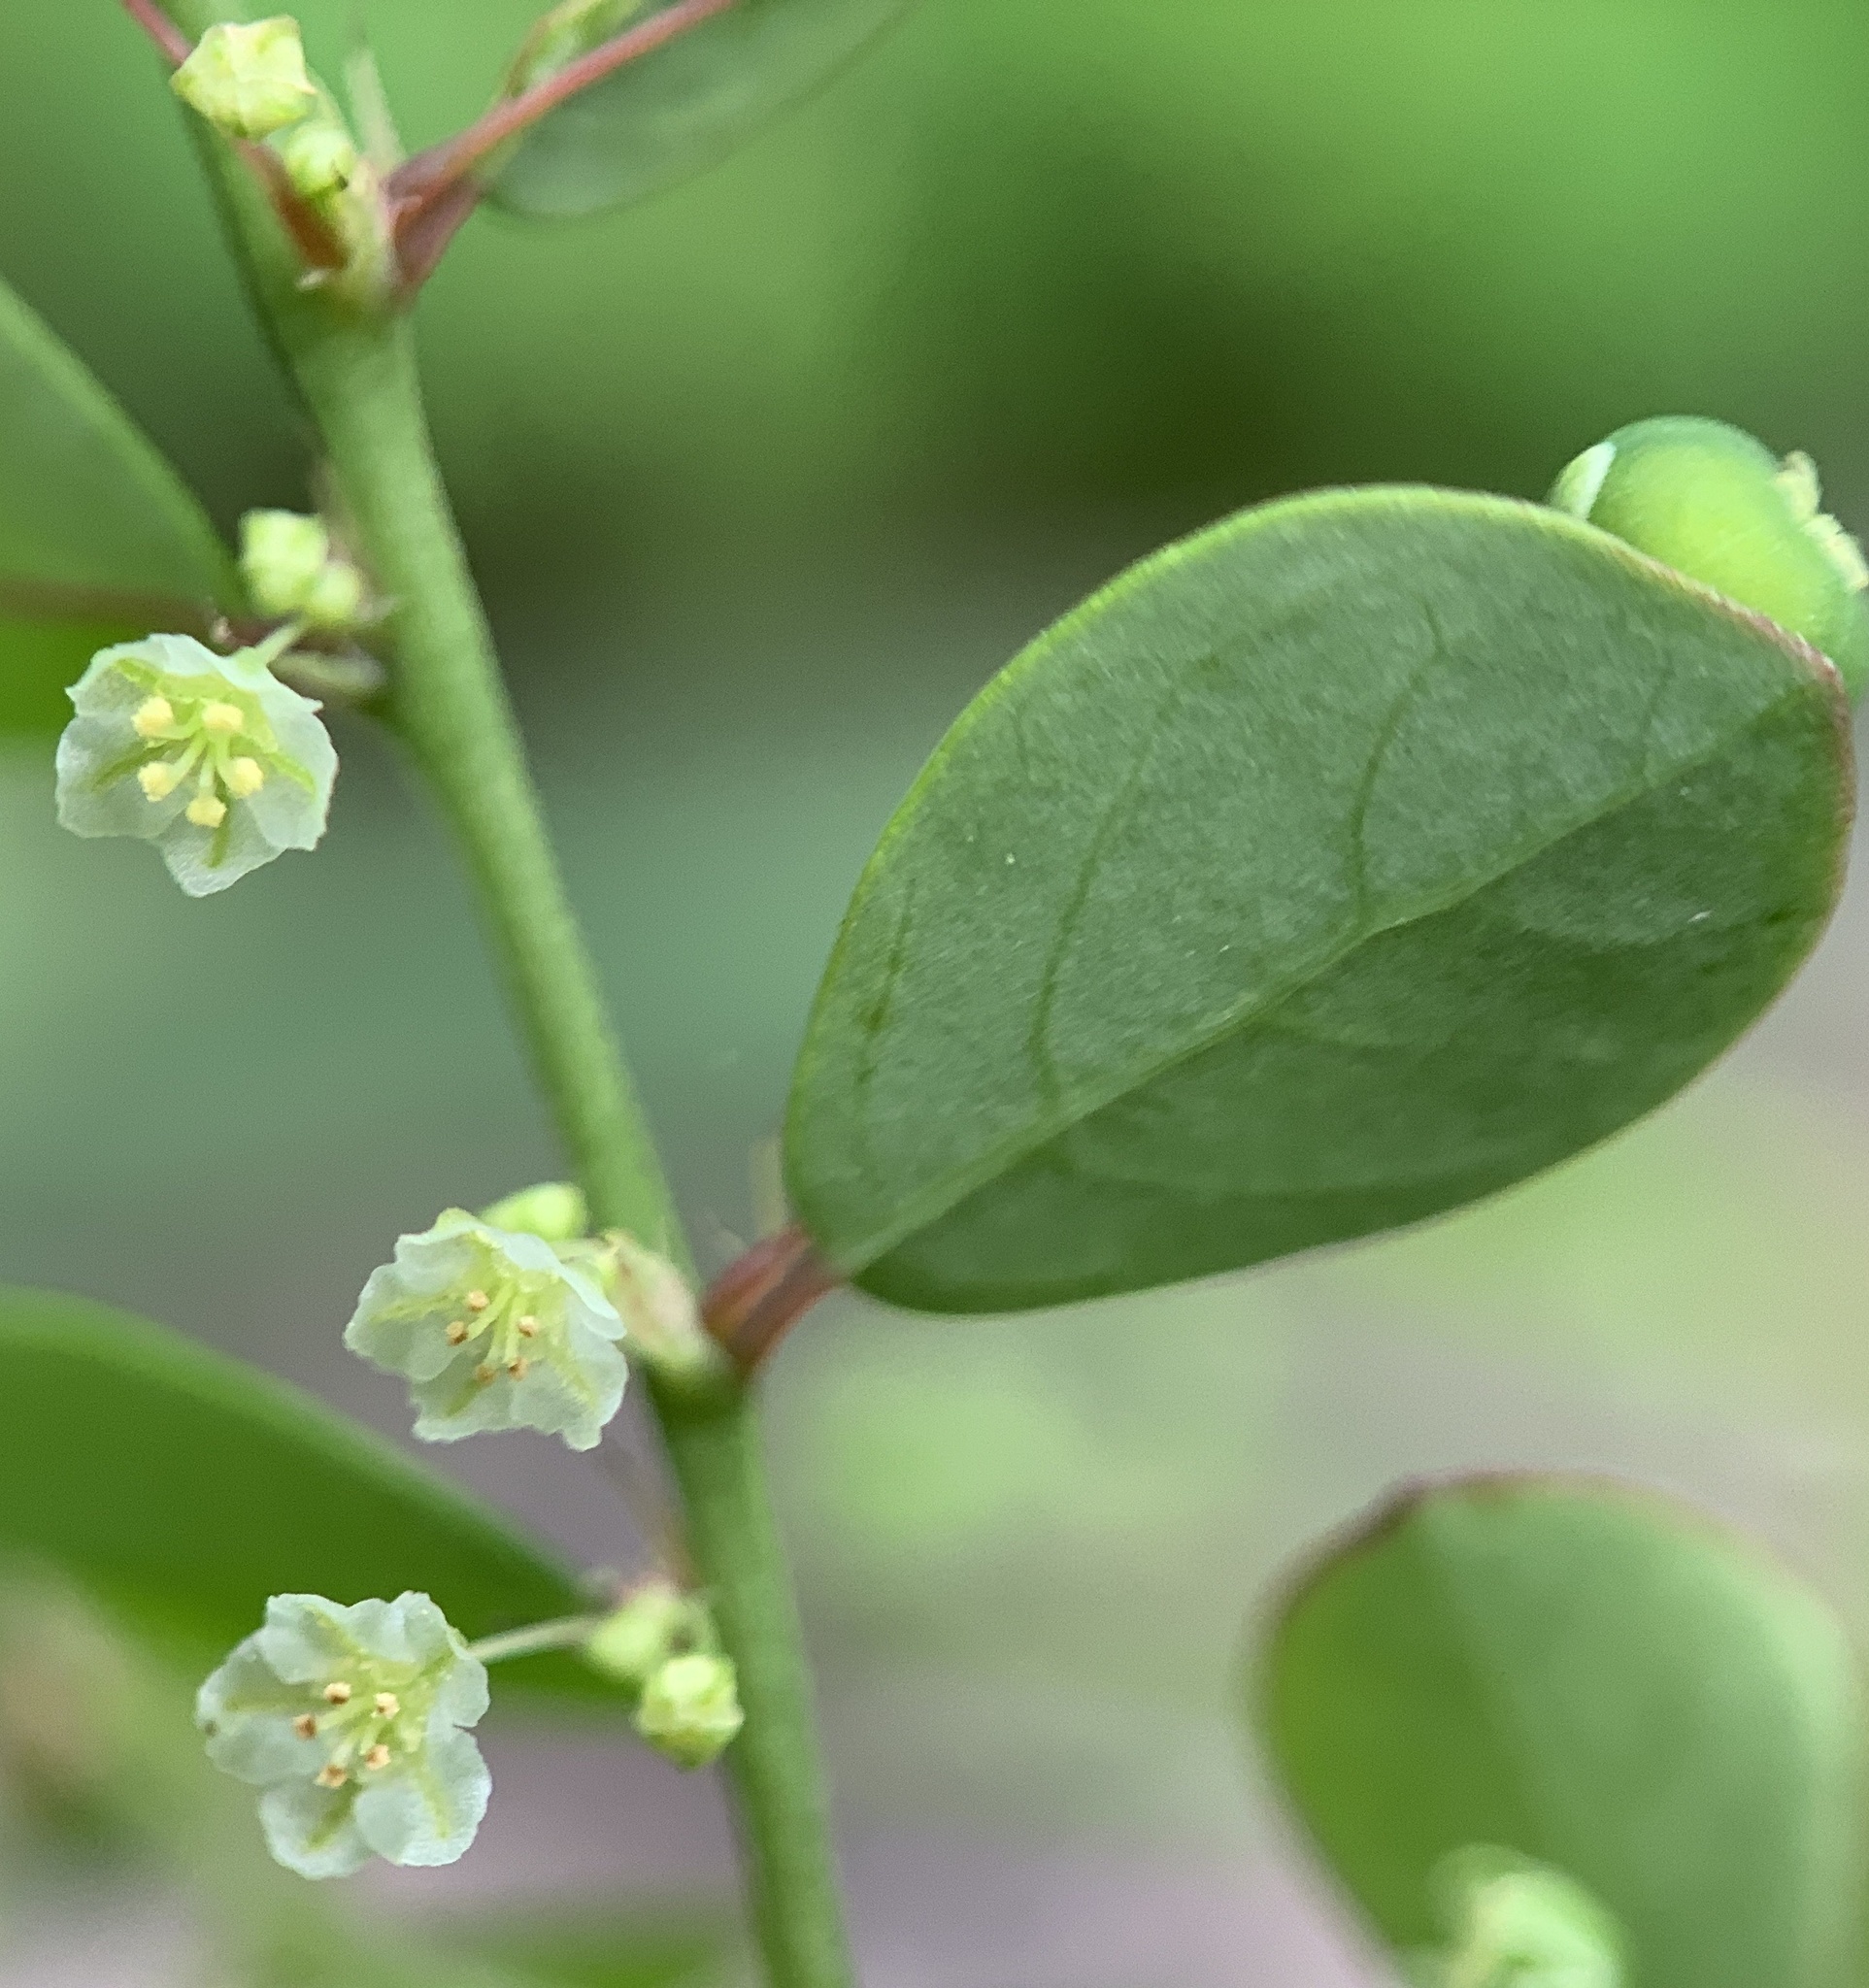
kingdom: Plantae
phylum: Tracheophyta
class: Magnoliopsida
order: Malpighiales
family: Phyllanthaceae
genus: Phyllanthus
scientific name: Phyllanthus tenellus
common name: Mascarene island leaf-flower
